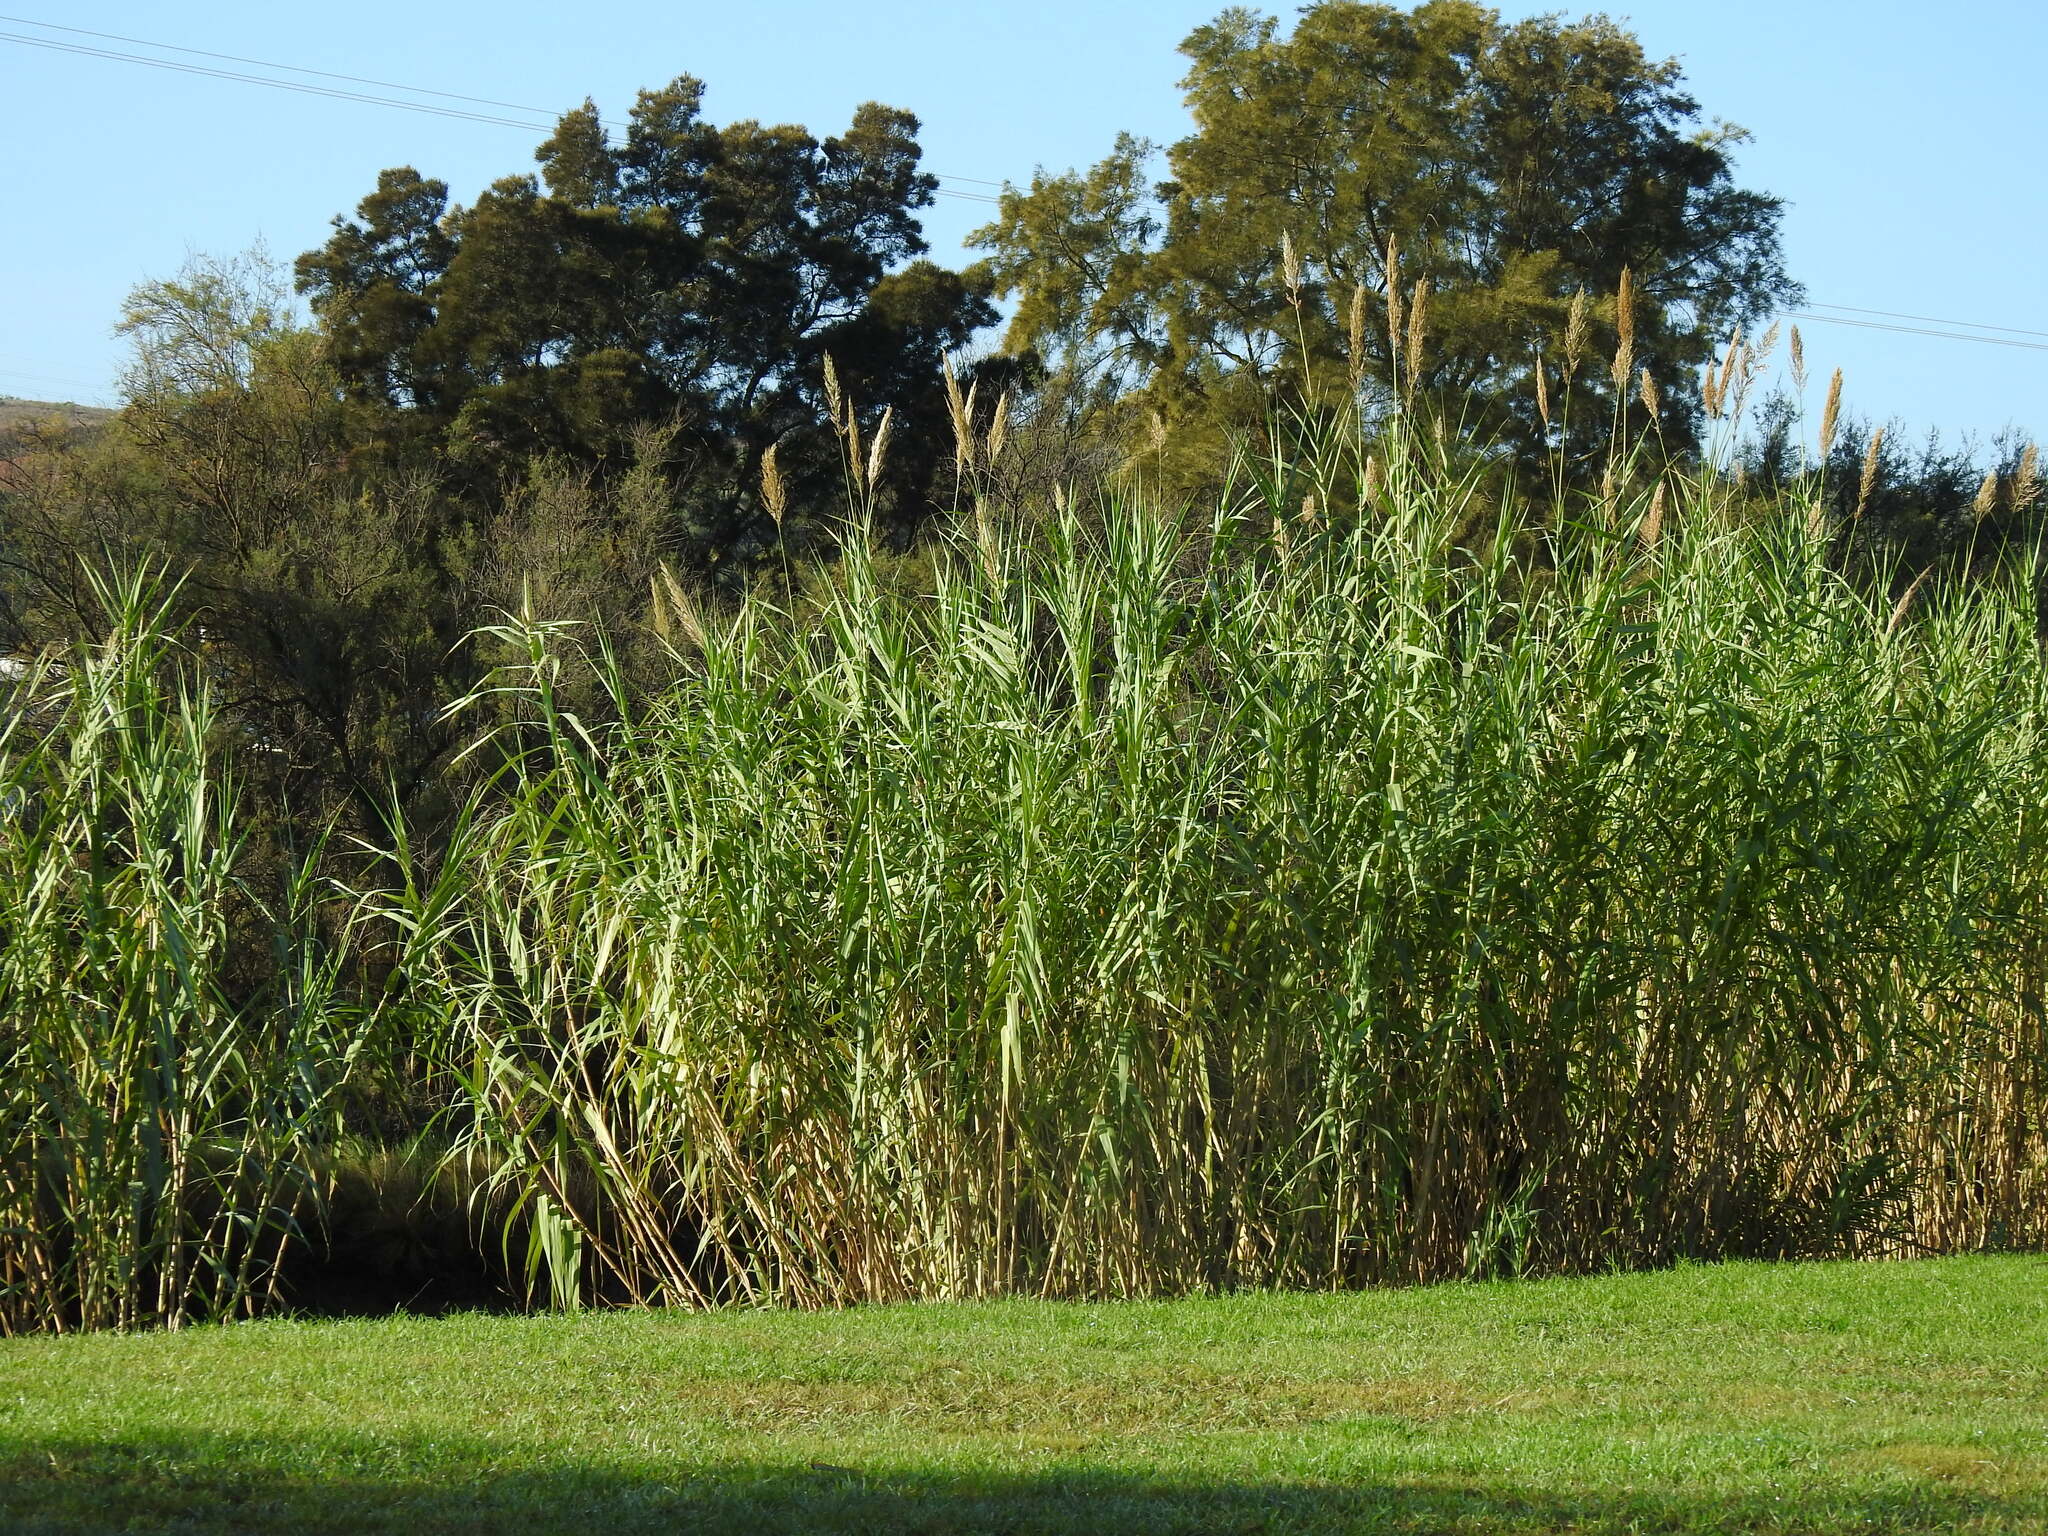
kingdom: Plantae
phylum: Tracheophyta
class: Liliopsida
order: Poales
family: Poaceae
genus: Arundo
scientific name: Arundo donax
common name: Giant reed
